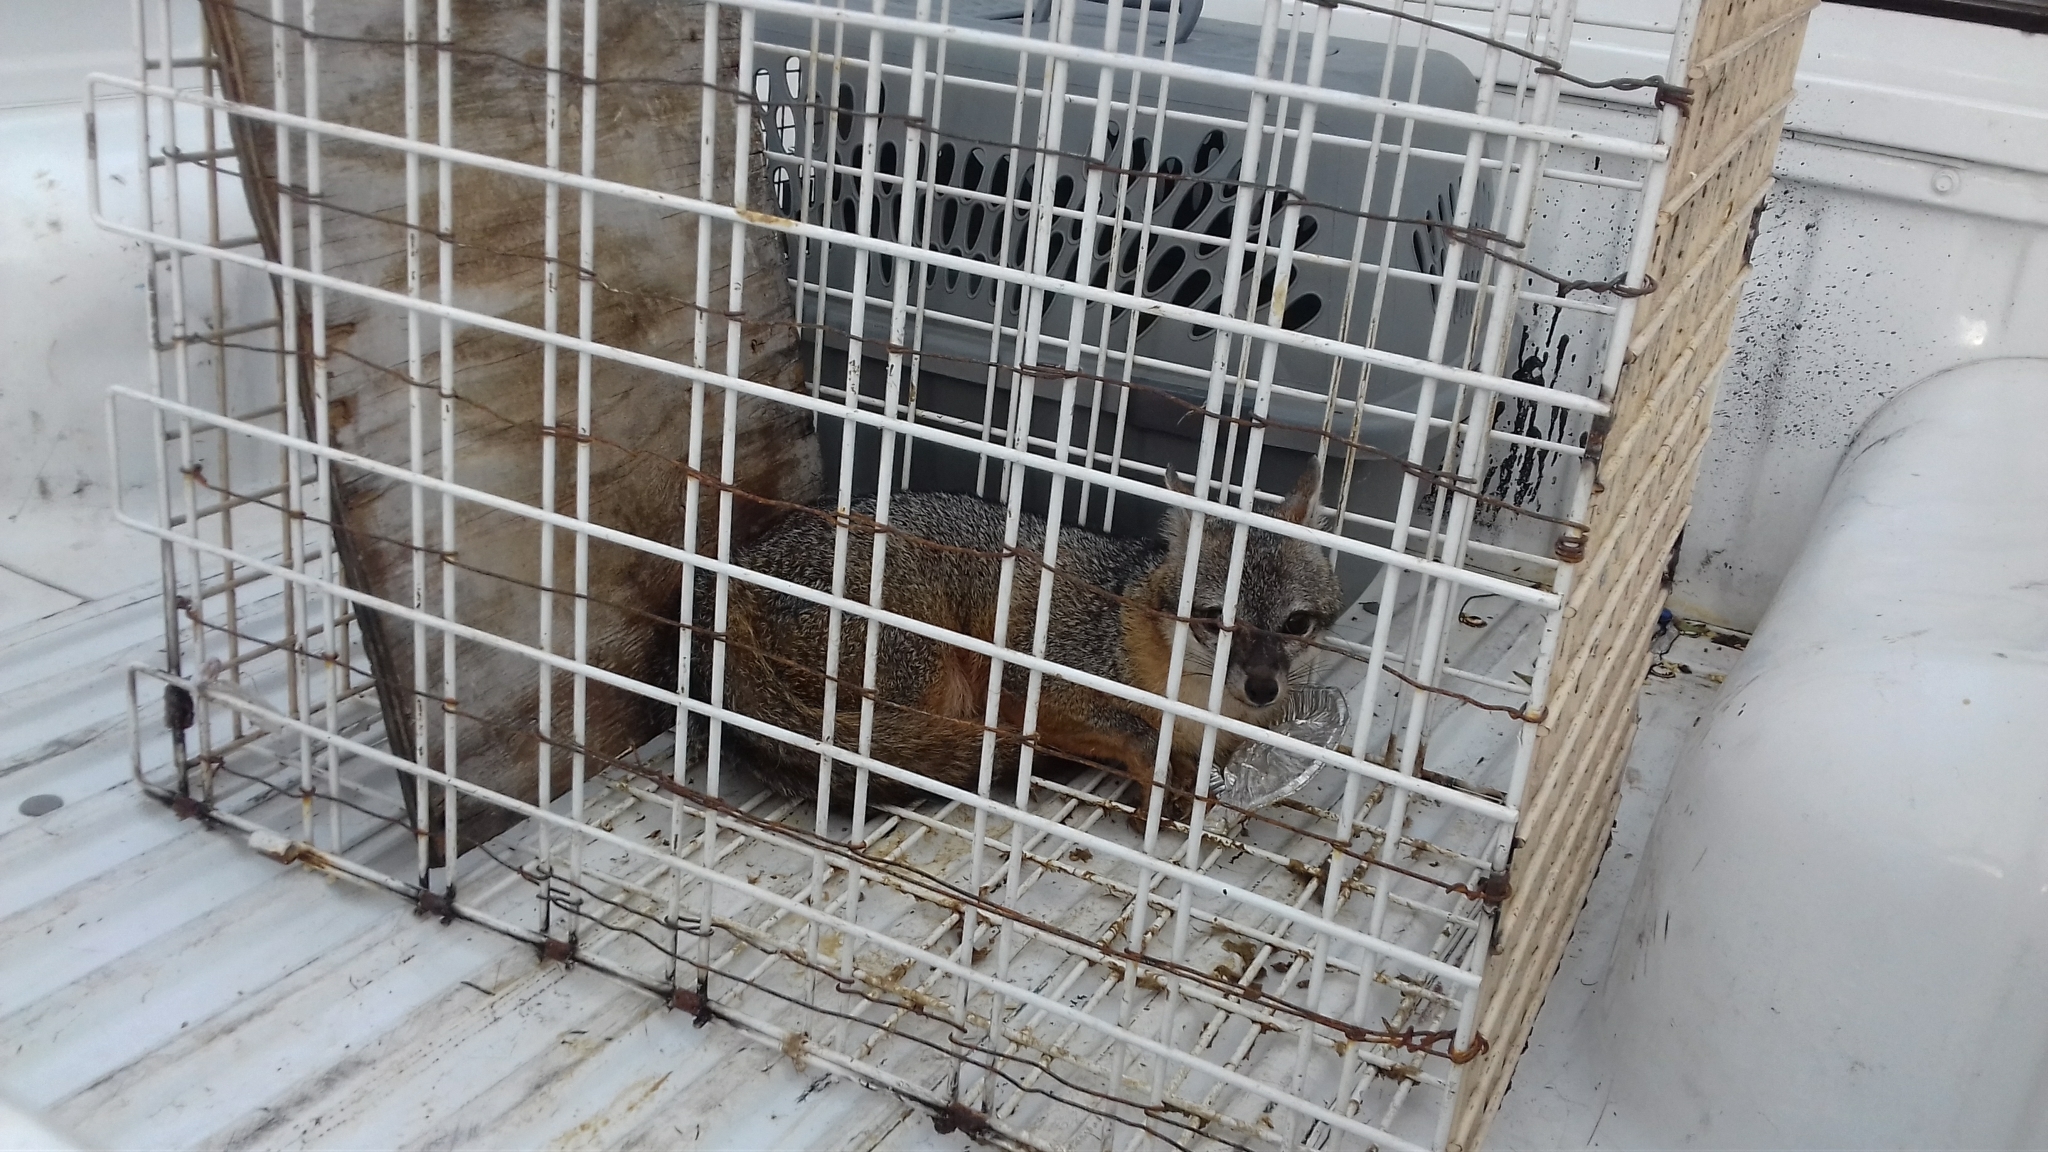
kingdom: Animalia
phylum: Chordata
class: Mammalia
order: Carnivora
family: Canidae
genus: Urocyon
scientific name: Urocyon cinereoargenteus
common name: Gray fox
